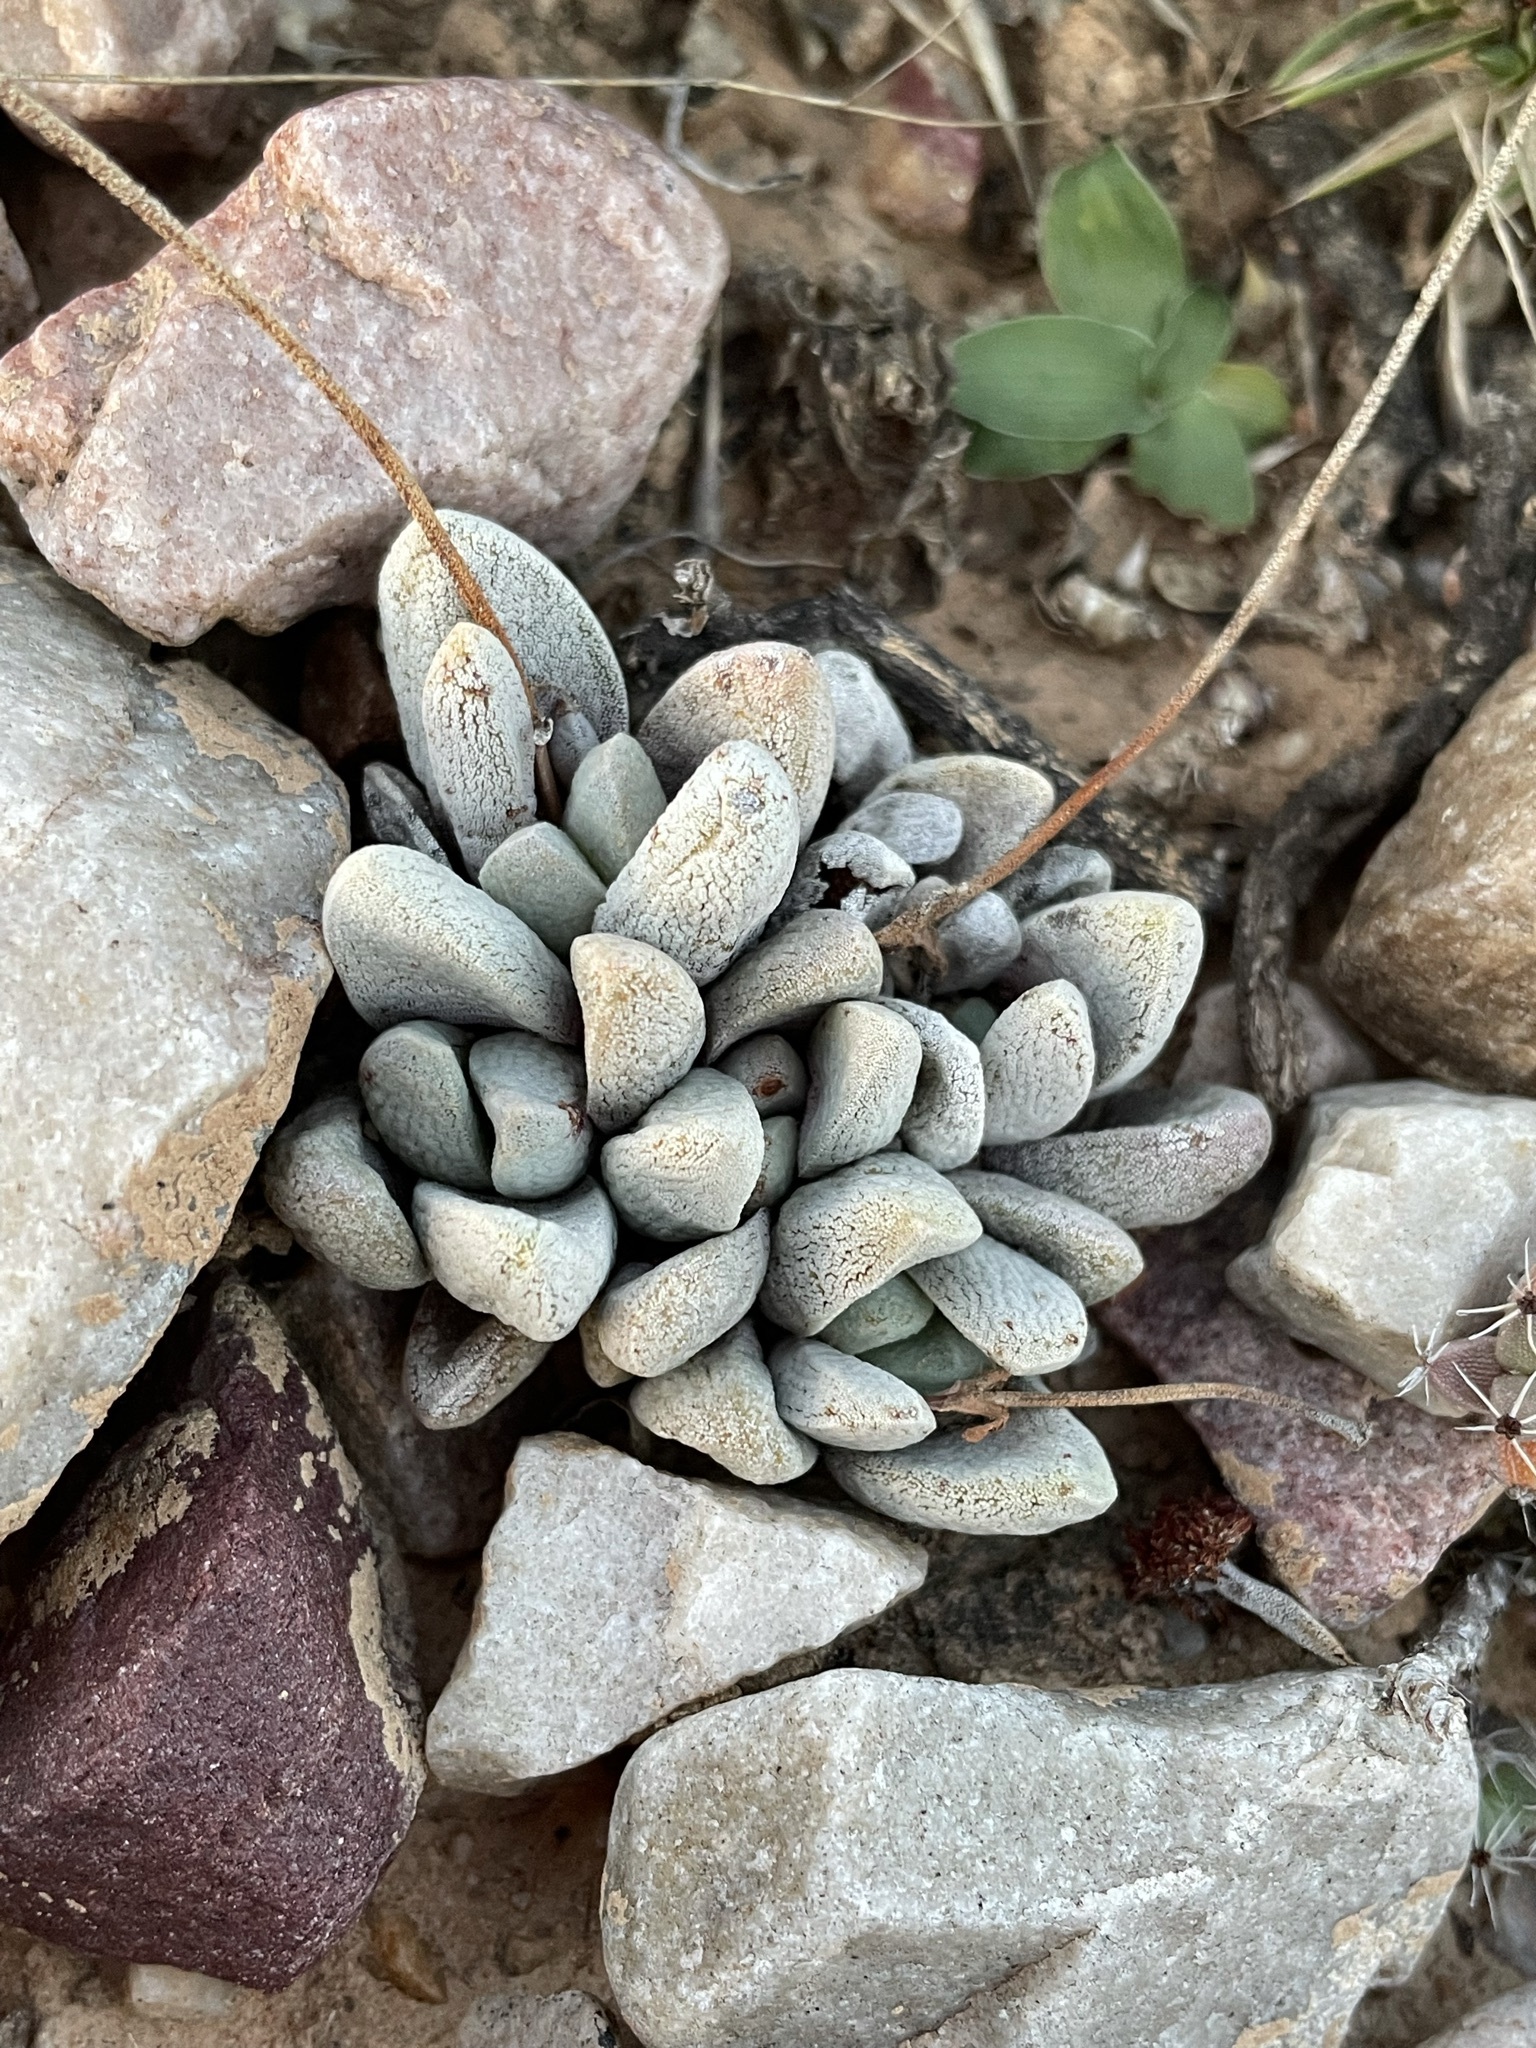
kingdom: Plantae
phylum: Tracheophyta
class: Magnoliopsida
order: Saxifragales
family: Crassulaceae
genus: Crassula
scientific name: Crassula tecta
